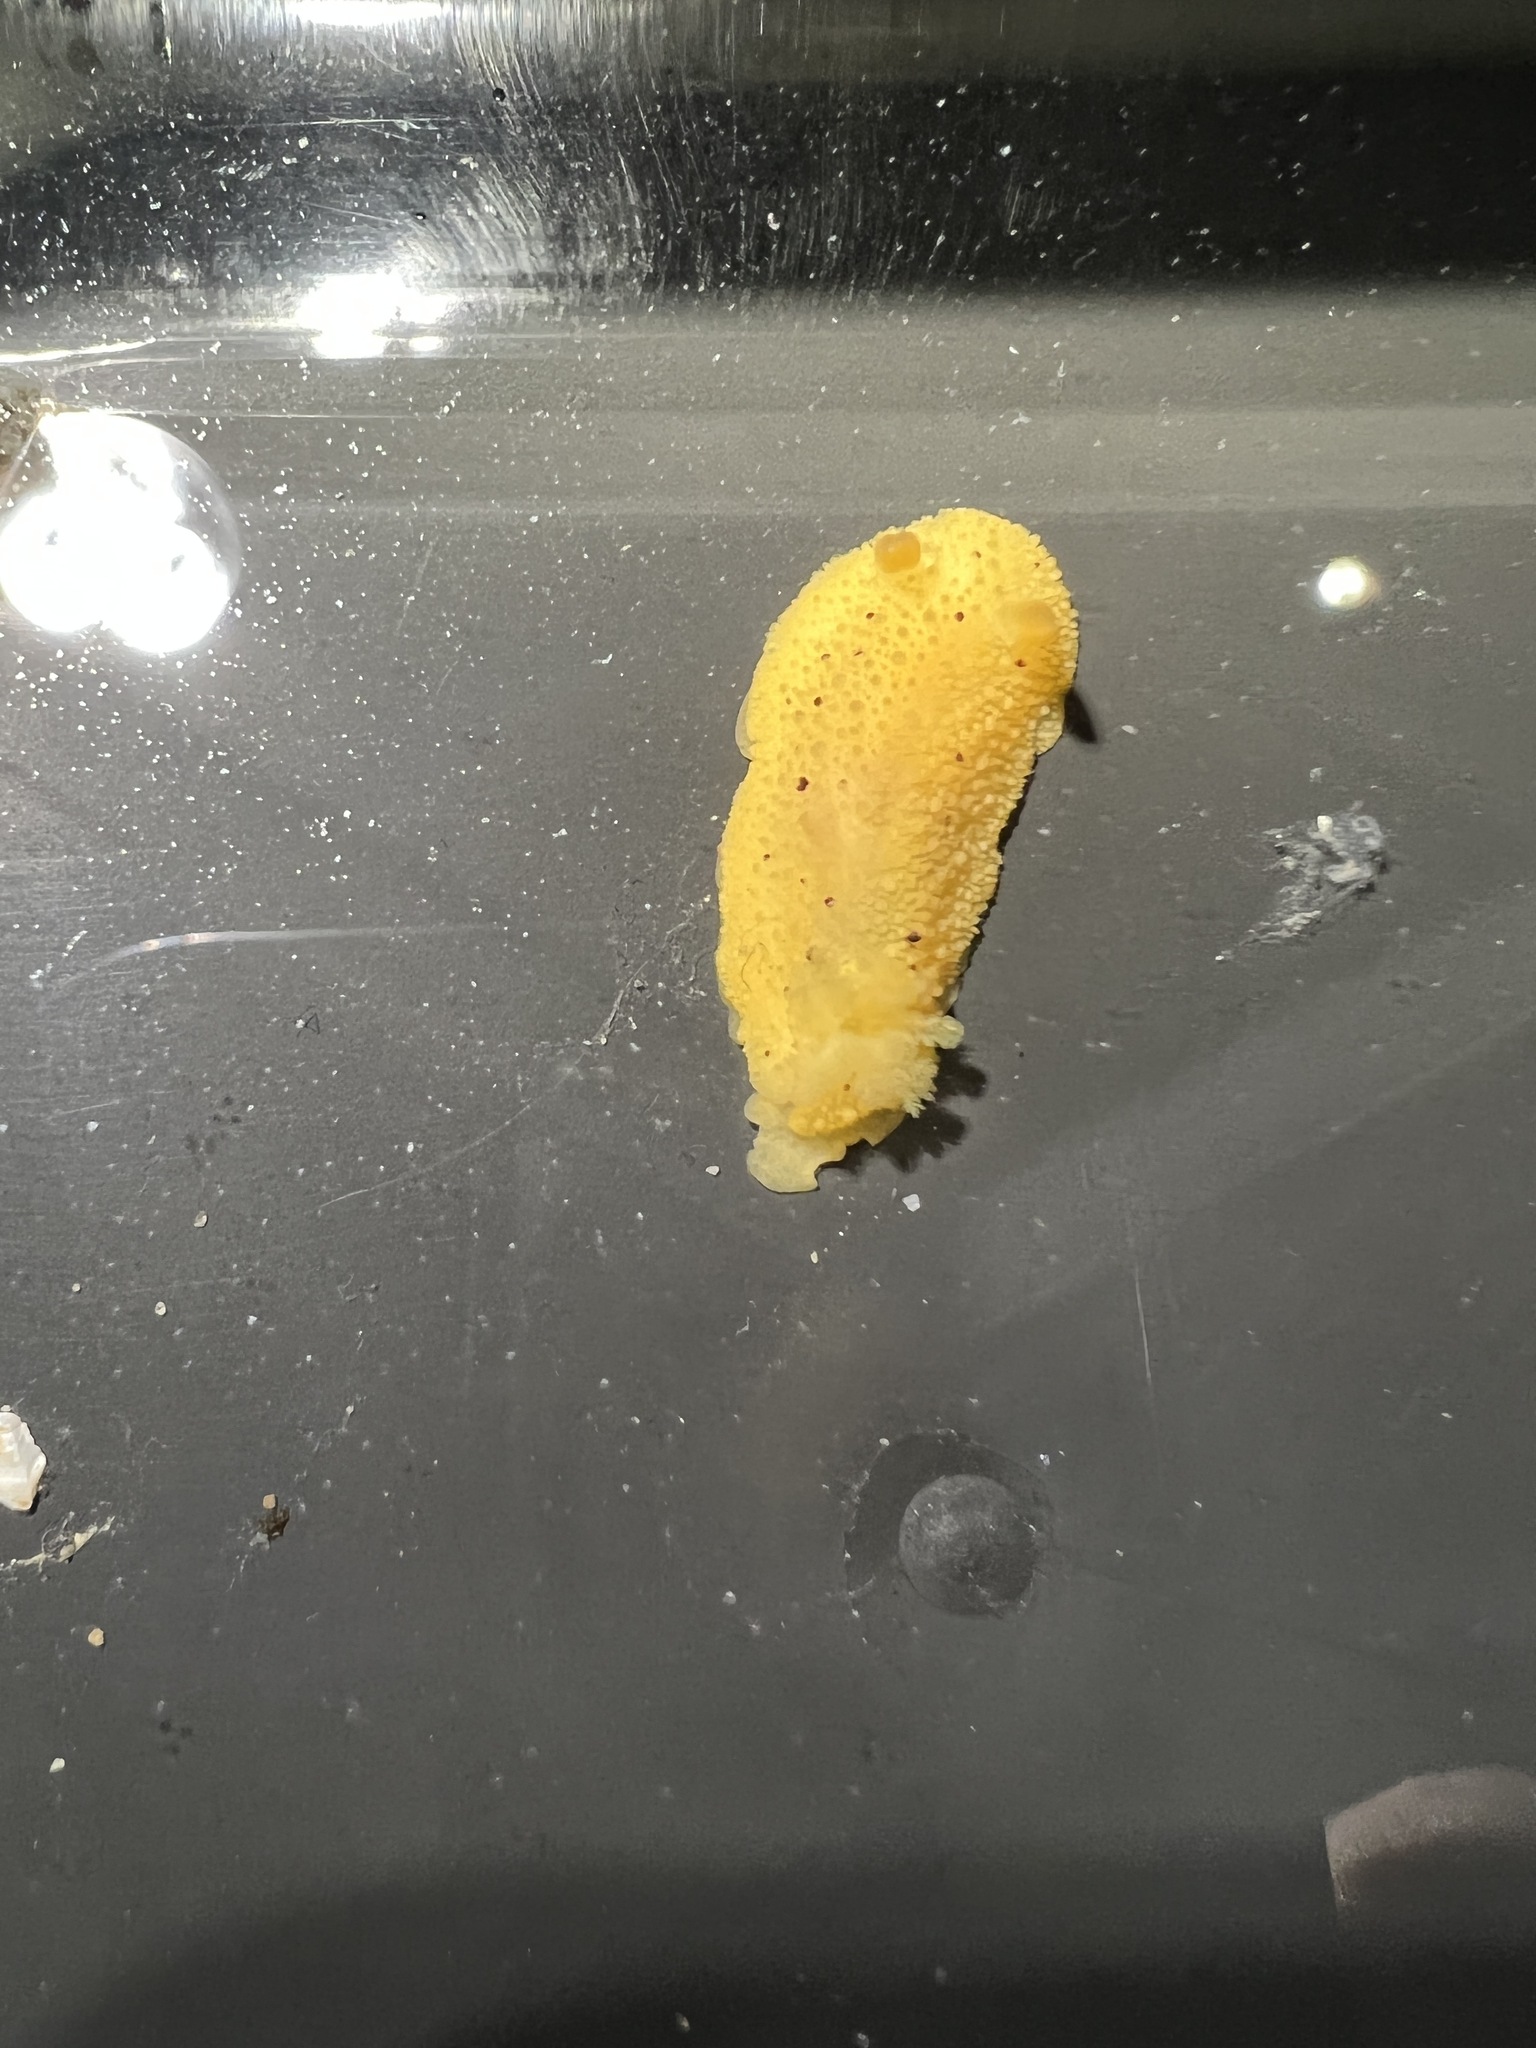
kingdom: Animalia
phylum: Mollusca
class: Gastropoda
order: Nudibranchia
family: Dorididae
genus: Doris
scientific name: Doris montereyensis
